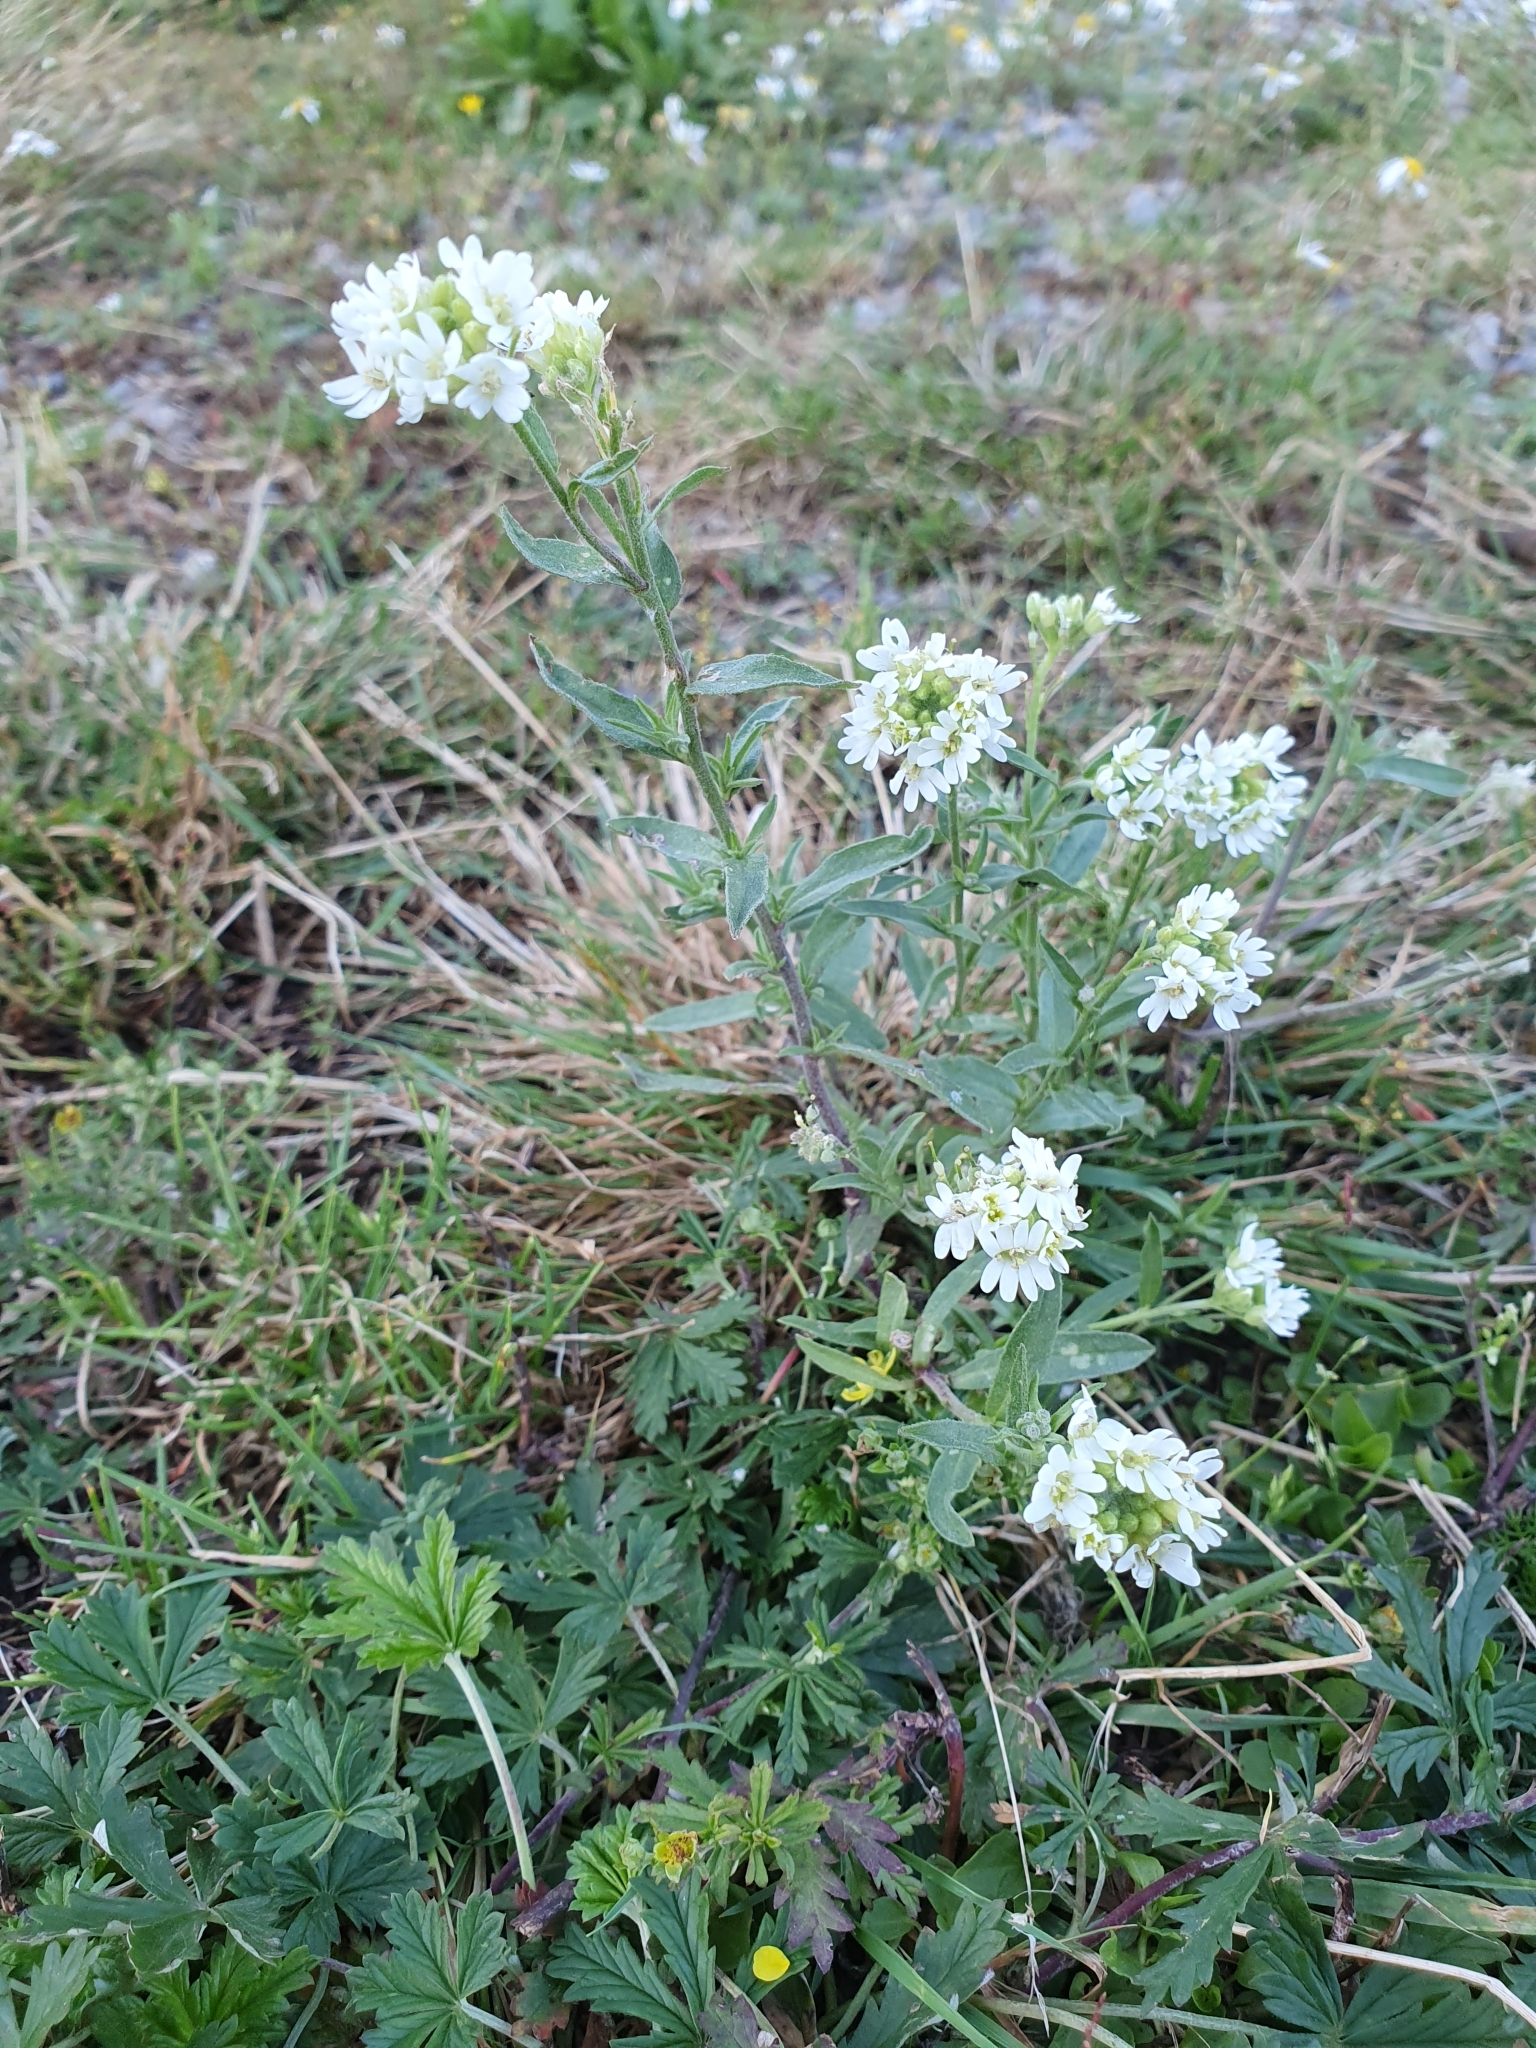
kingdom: Plantae
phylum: Tracheophyta
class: Magnoliopsida
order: Brassicales
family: Brassicaceae
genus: Berteroa
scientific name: Berteroa incana
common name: Hoary alison
